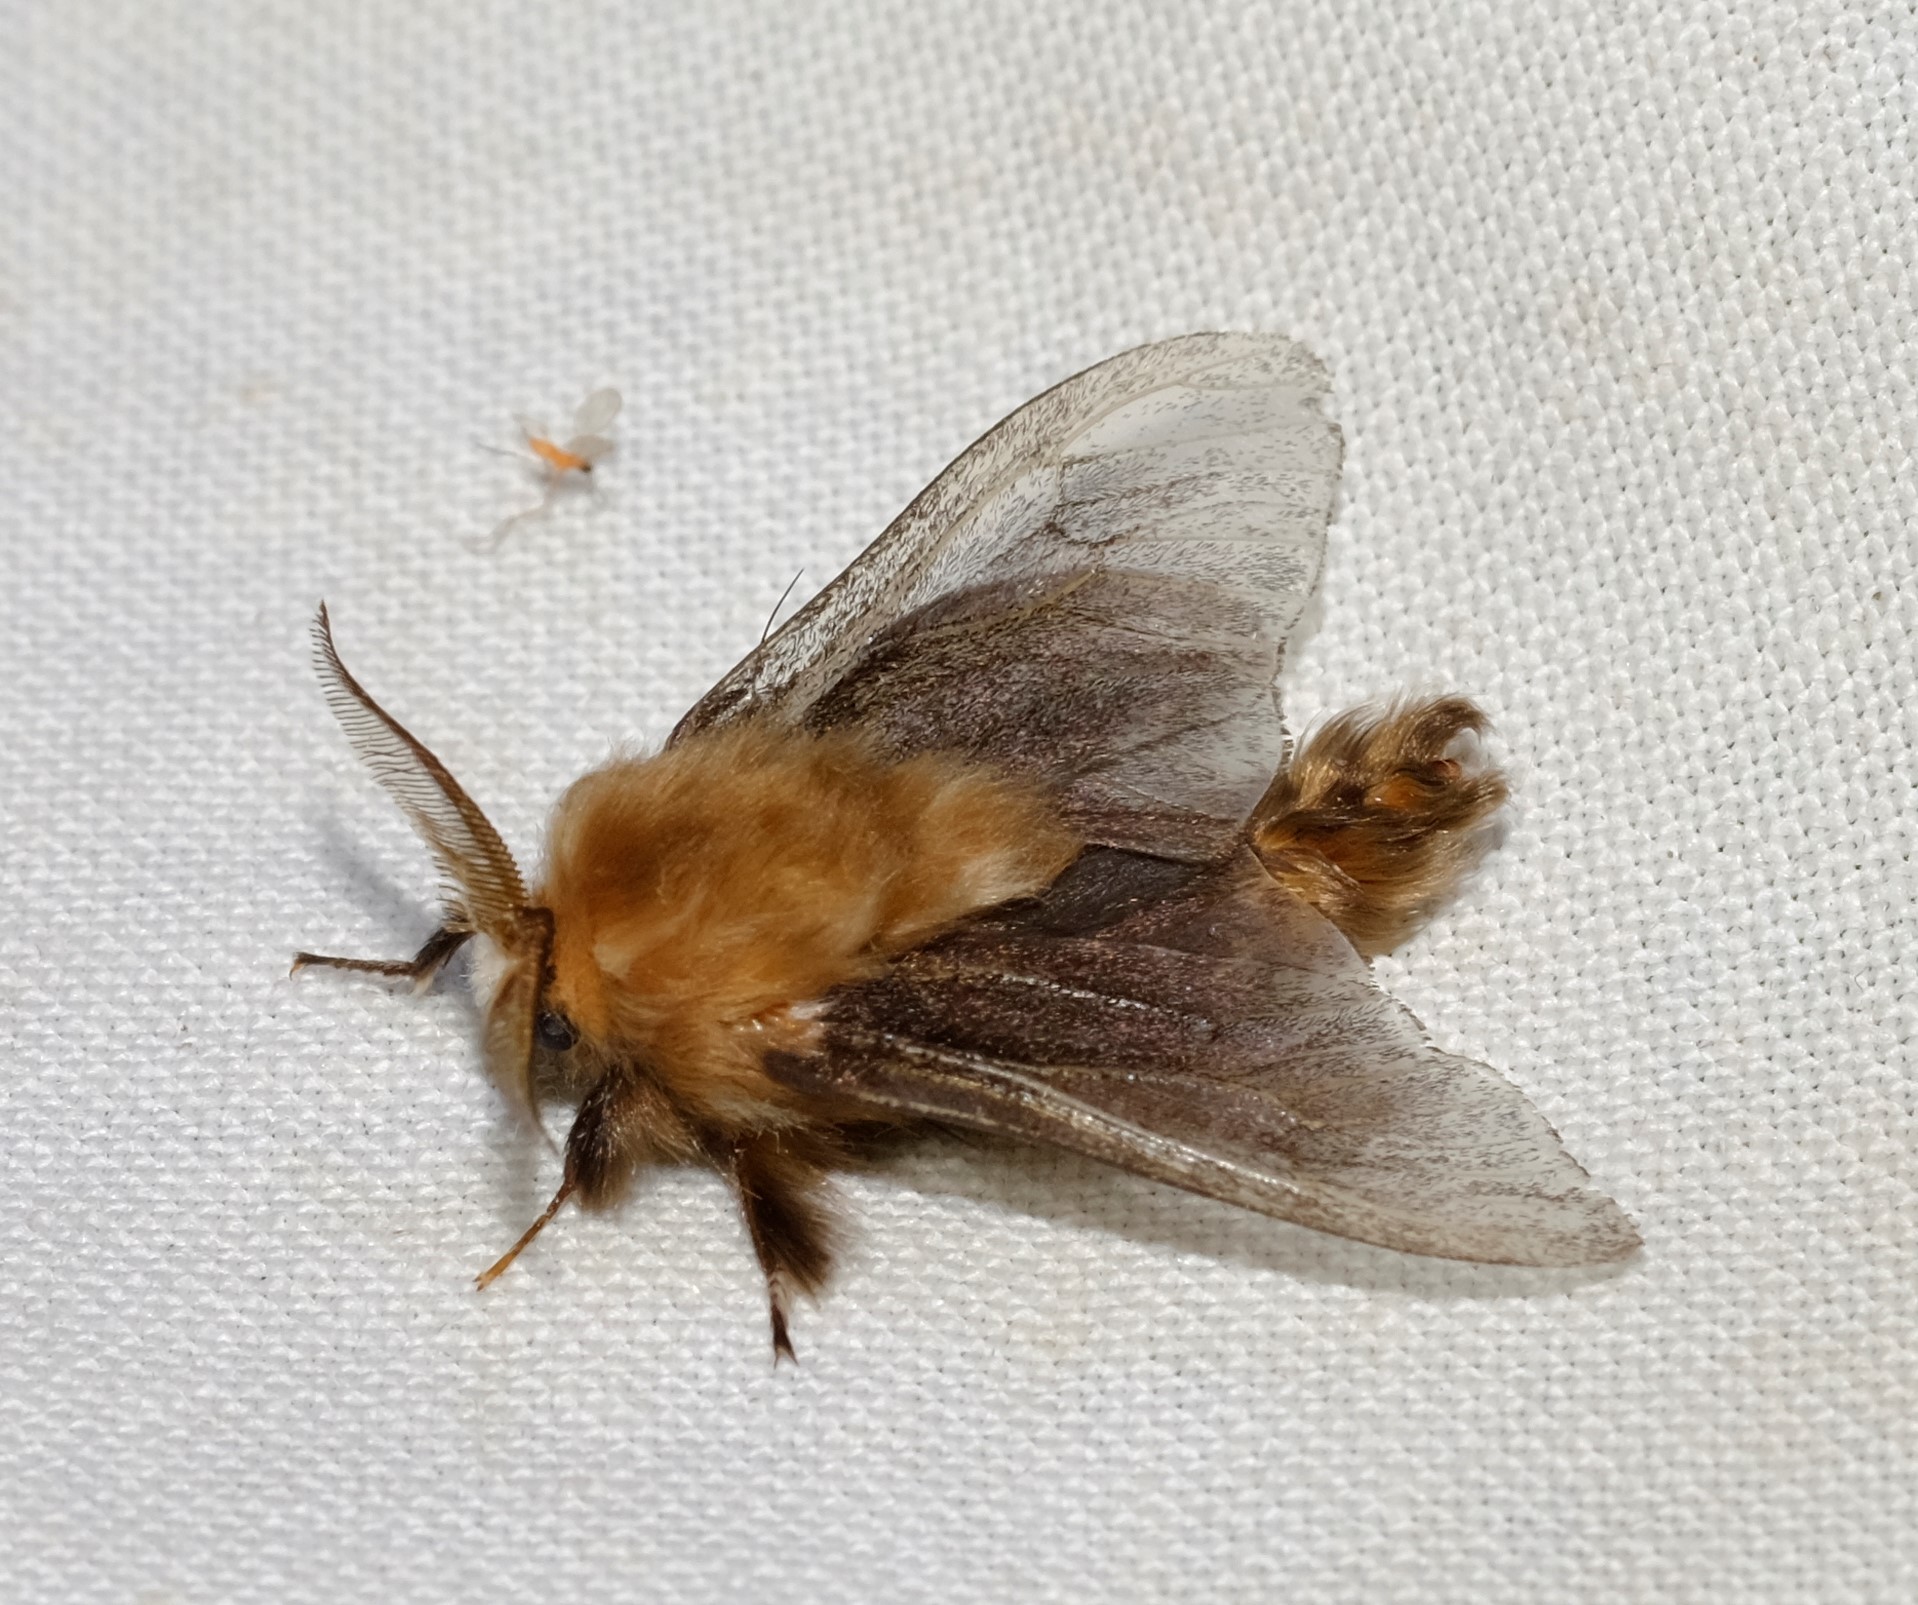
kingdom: Animalia
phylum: Arthropoda
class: Insecta
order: Lepidoptera
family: Psychidae
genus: Clania
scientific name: Clania ignobilis
